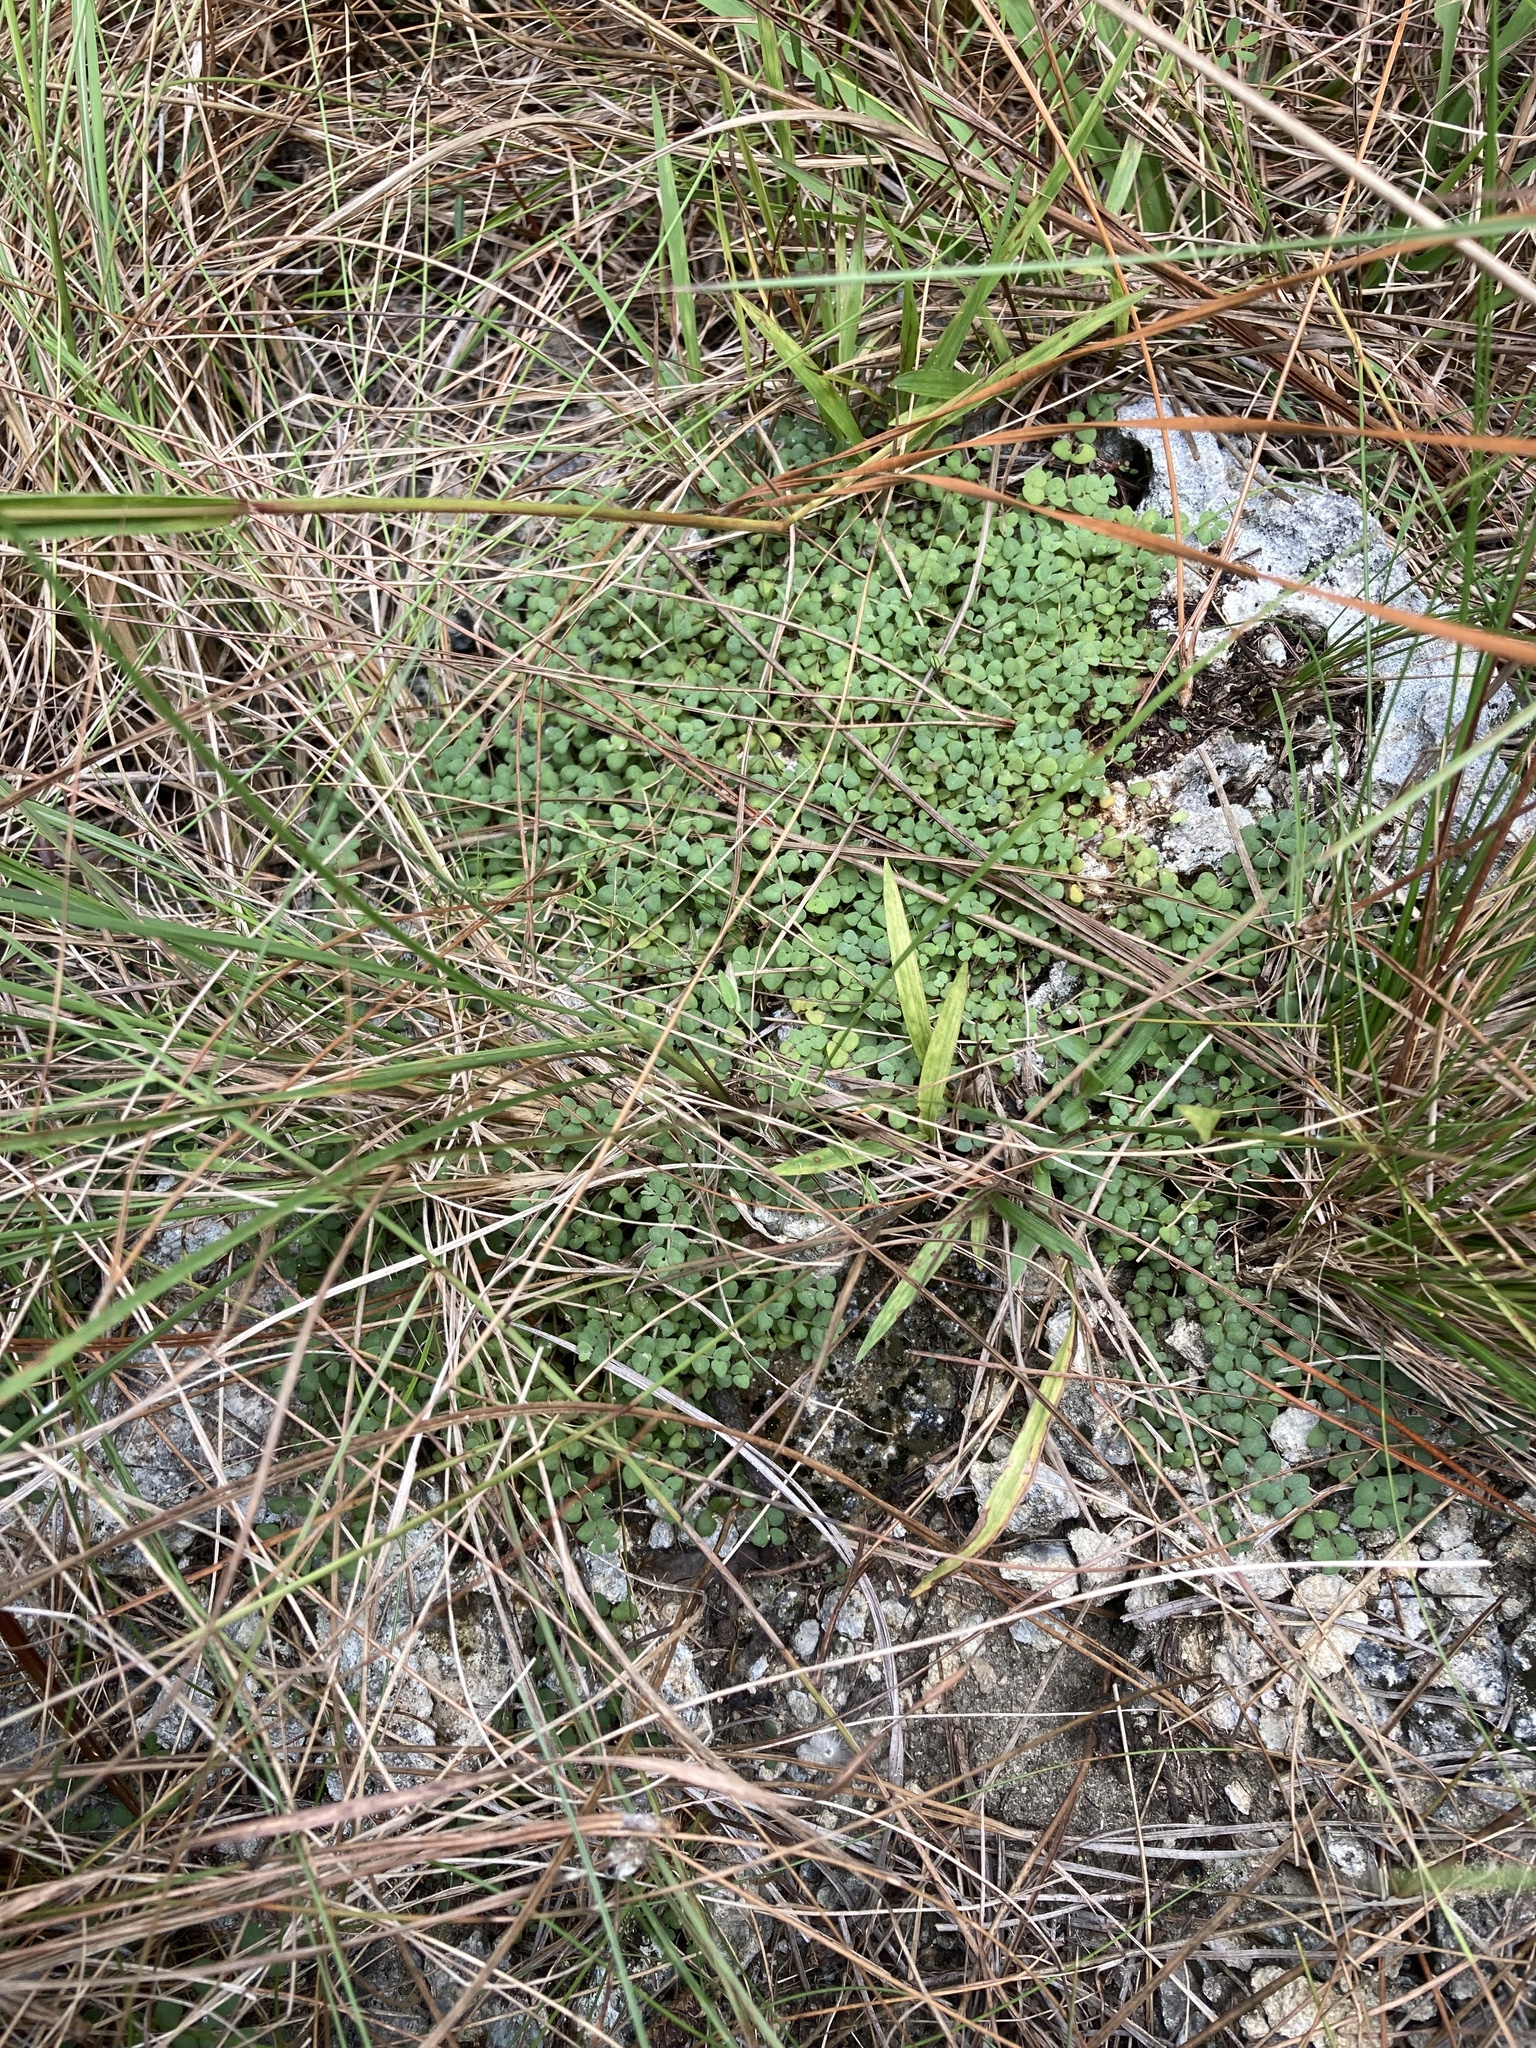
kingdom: Plantae
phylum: Tracheophyta
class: Magnoliopsida
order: Malpighiales
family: Euphorbiaceae
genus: Euphorbia
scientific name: Euphorbia deltoidea
